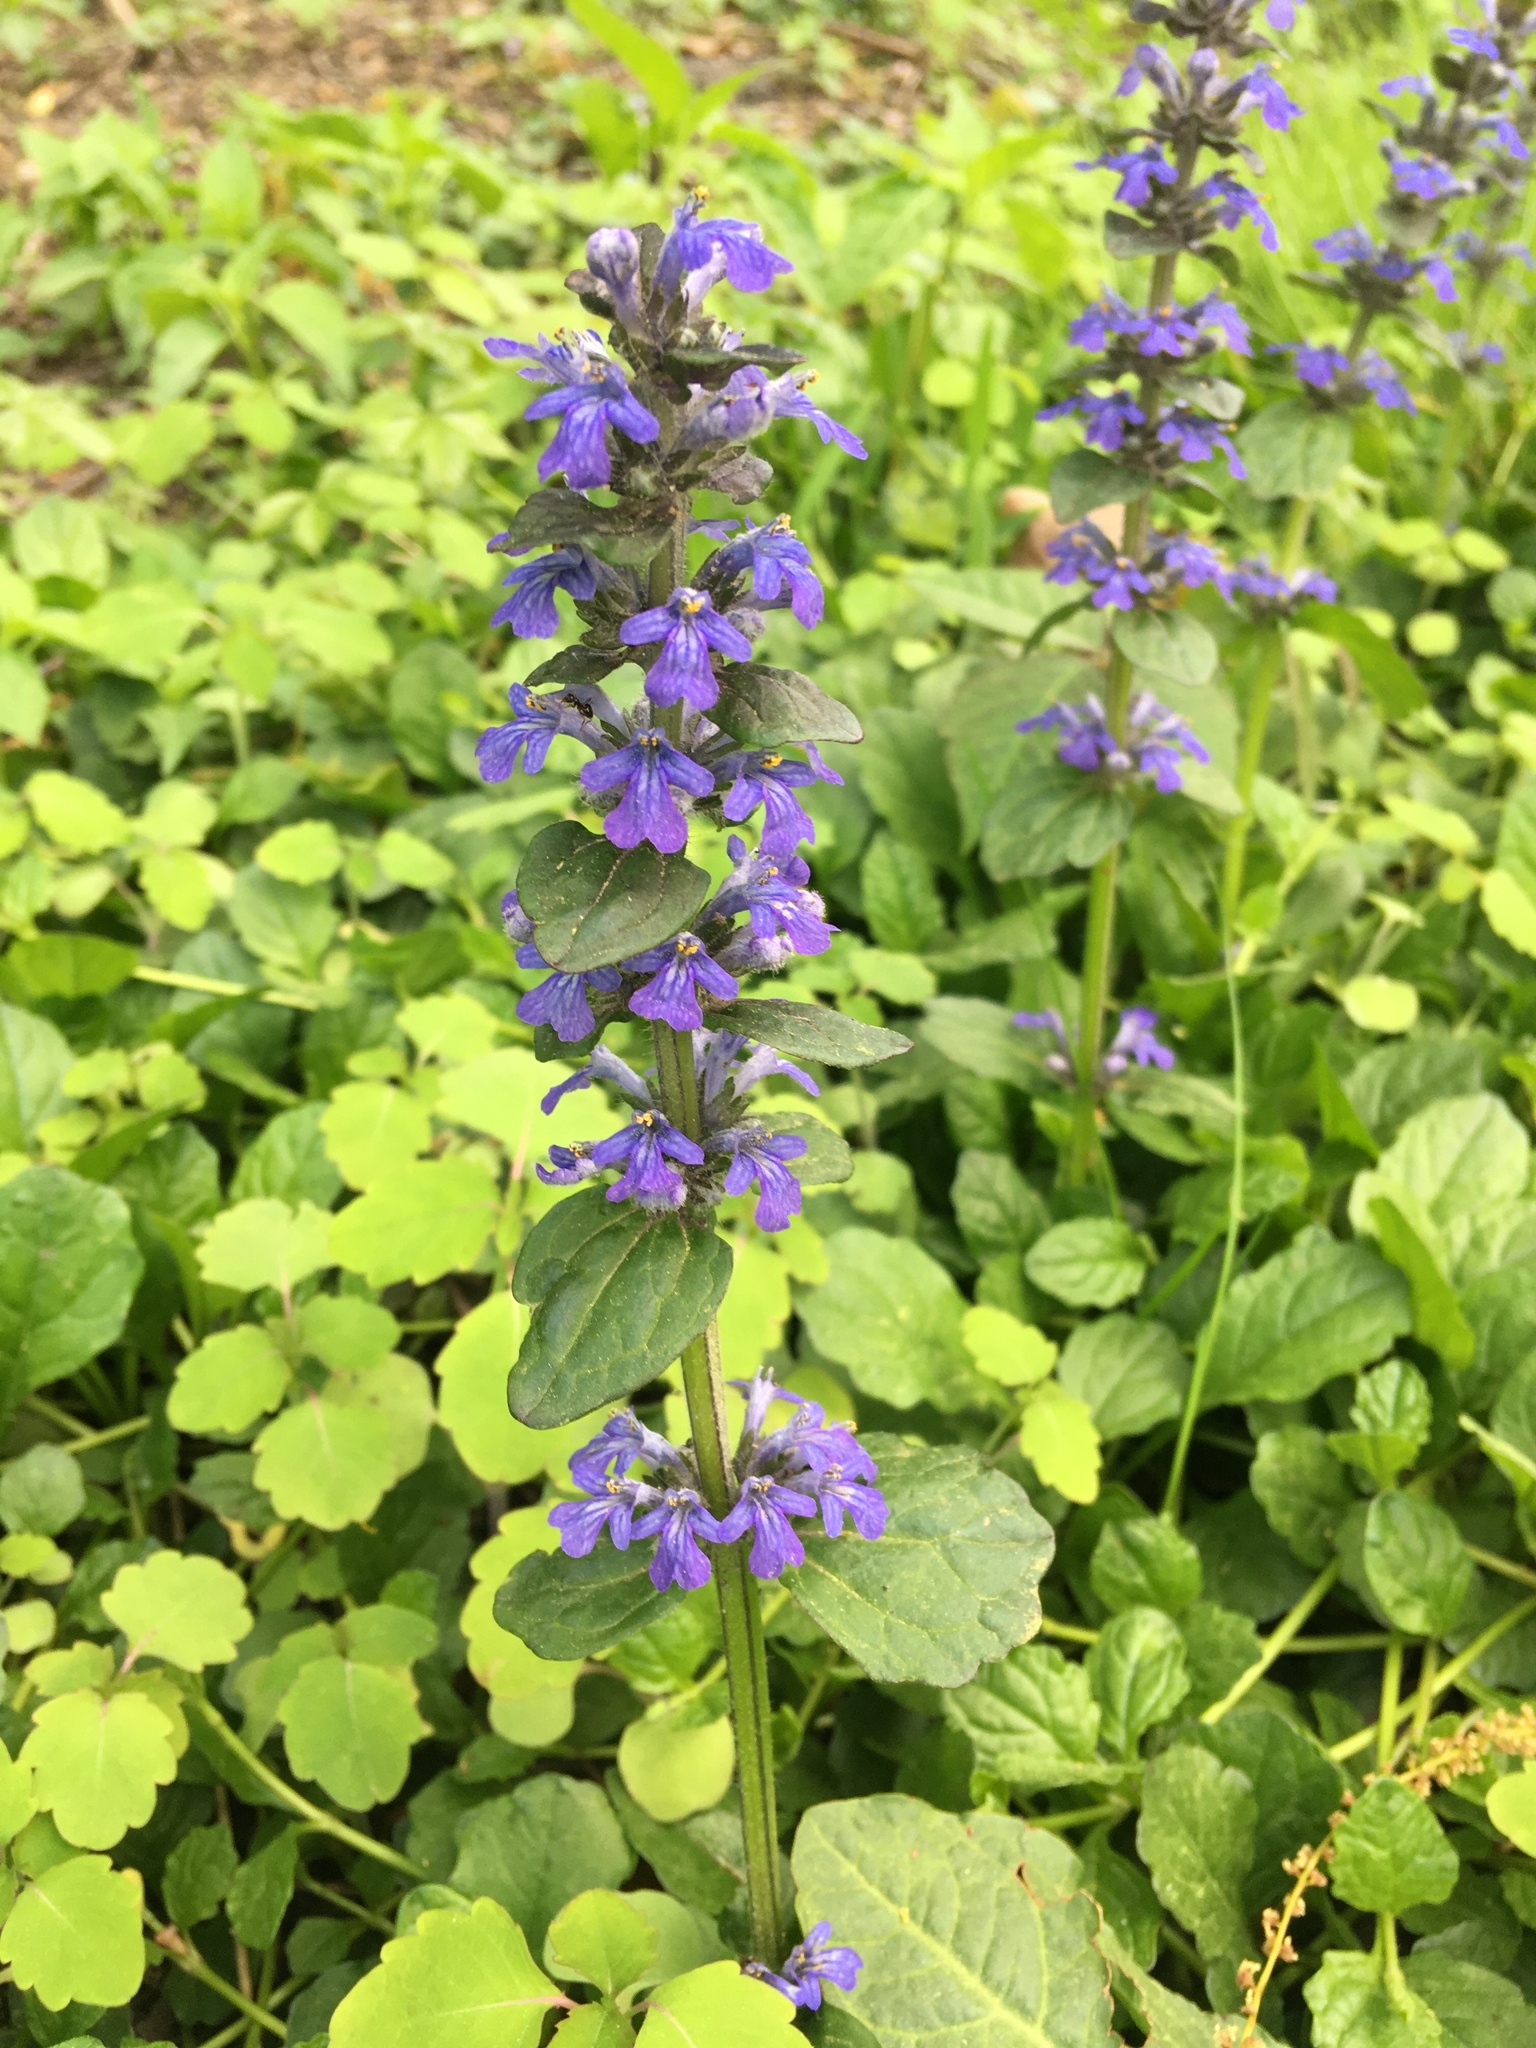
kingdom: Plantae
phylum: Tracheophyta
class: Magnoliopsida
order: Lamiales
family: Lamiaceae
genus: Ajuga
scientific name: Ajuga reptans
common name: Bugle
